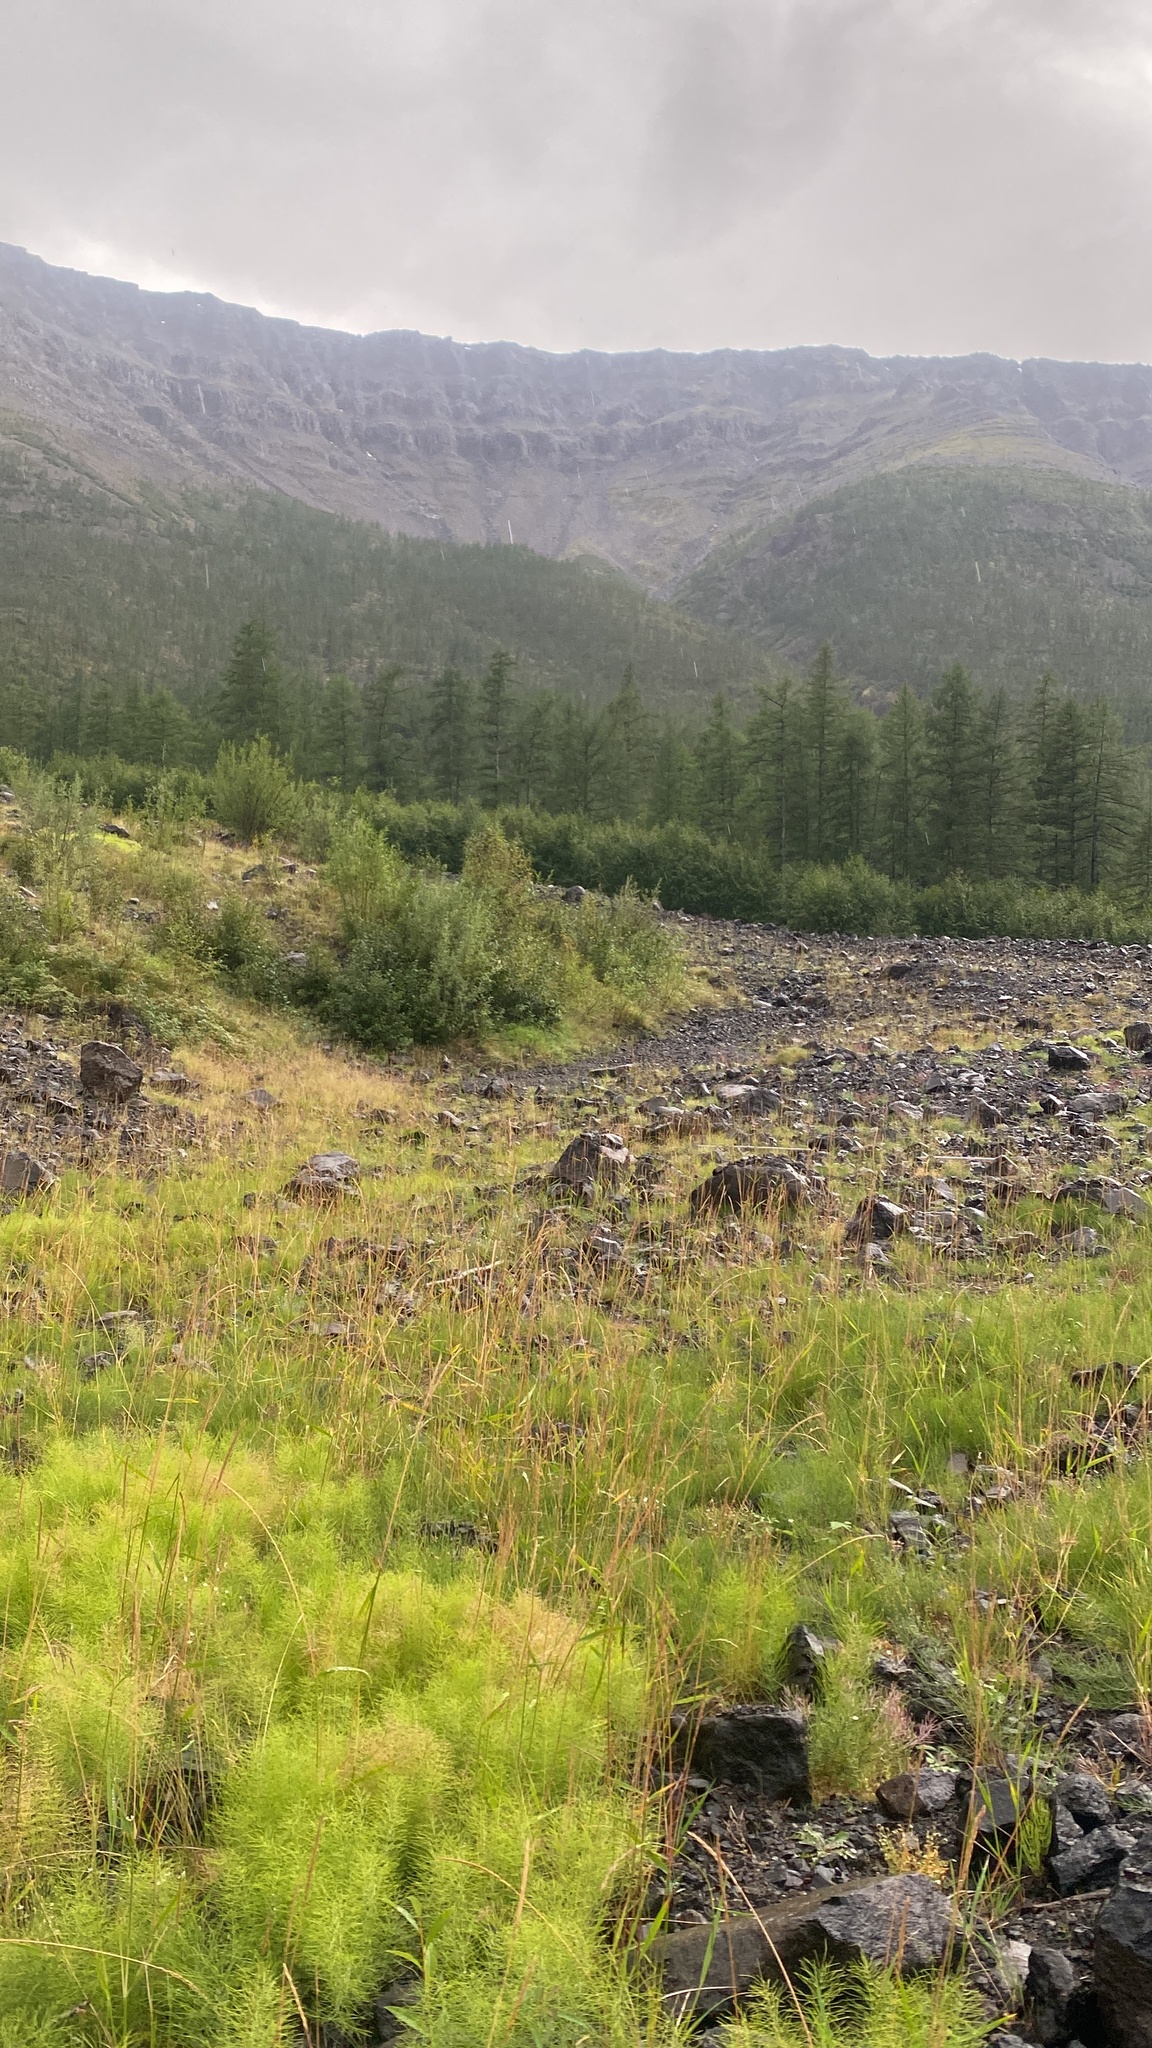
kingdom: Plantae
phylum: Tracheophyta
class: Polypodiopsida
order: Equisetales
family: Equisetaceae
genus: Equisetum
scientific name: Equisetum pratense
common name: Meadow horsetail
